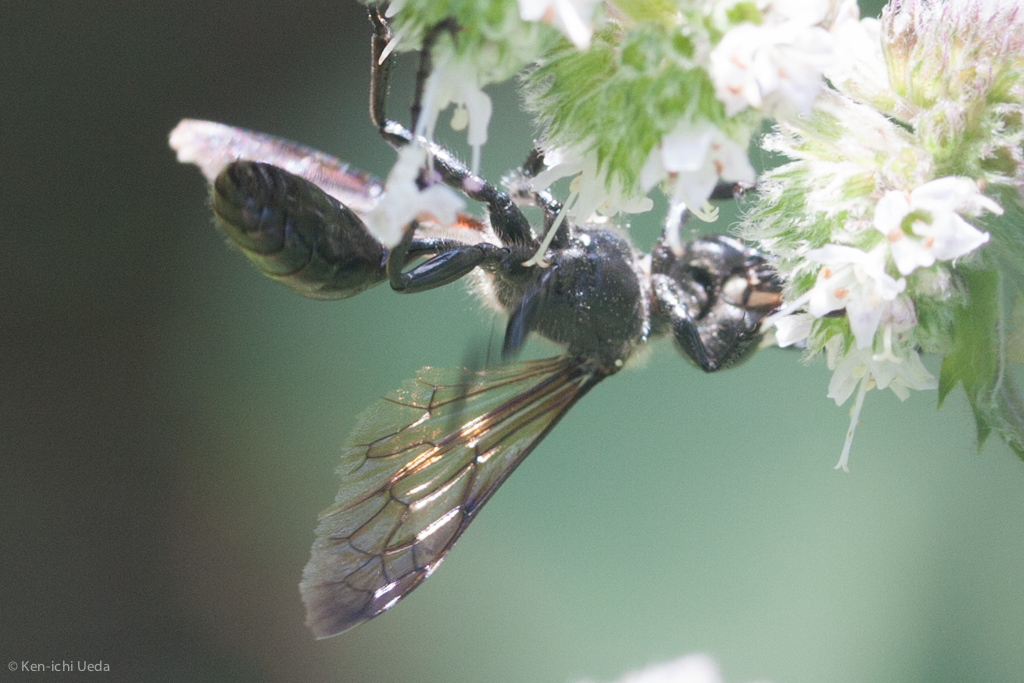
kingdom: Animalia
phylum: Arthropoda
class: Insecta
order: Hymenoptera
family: Sphecidae
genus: Isodontia
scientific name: Isodontia auripes
